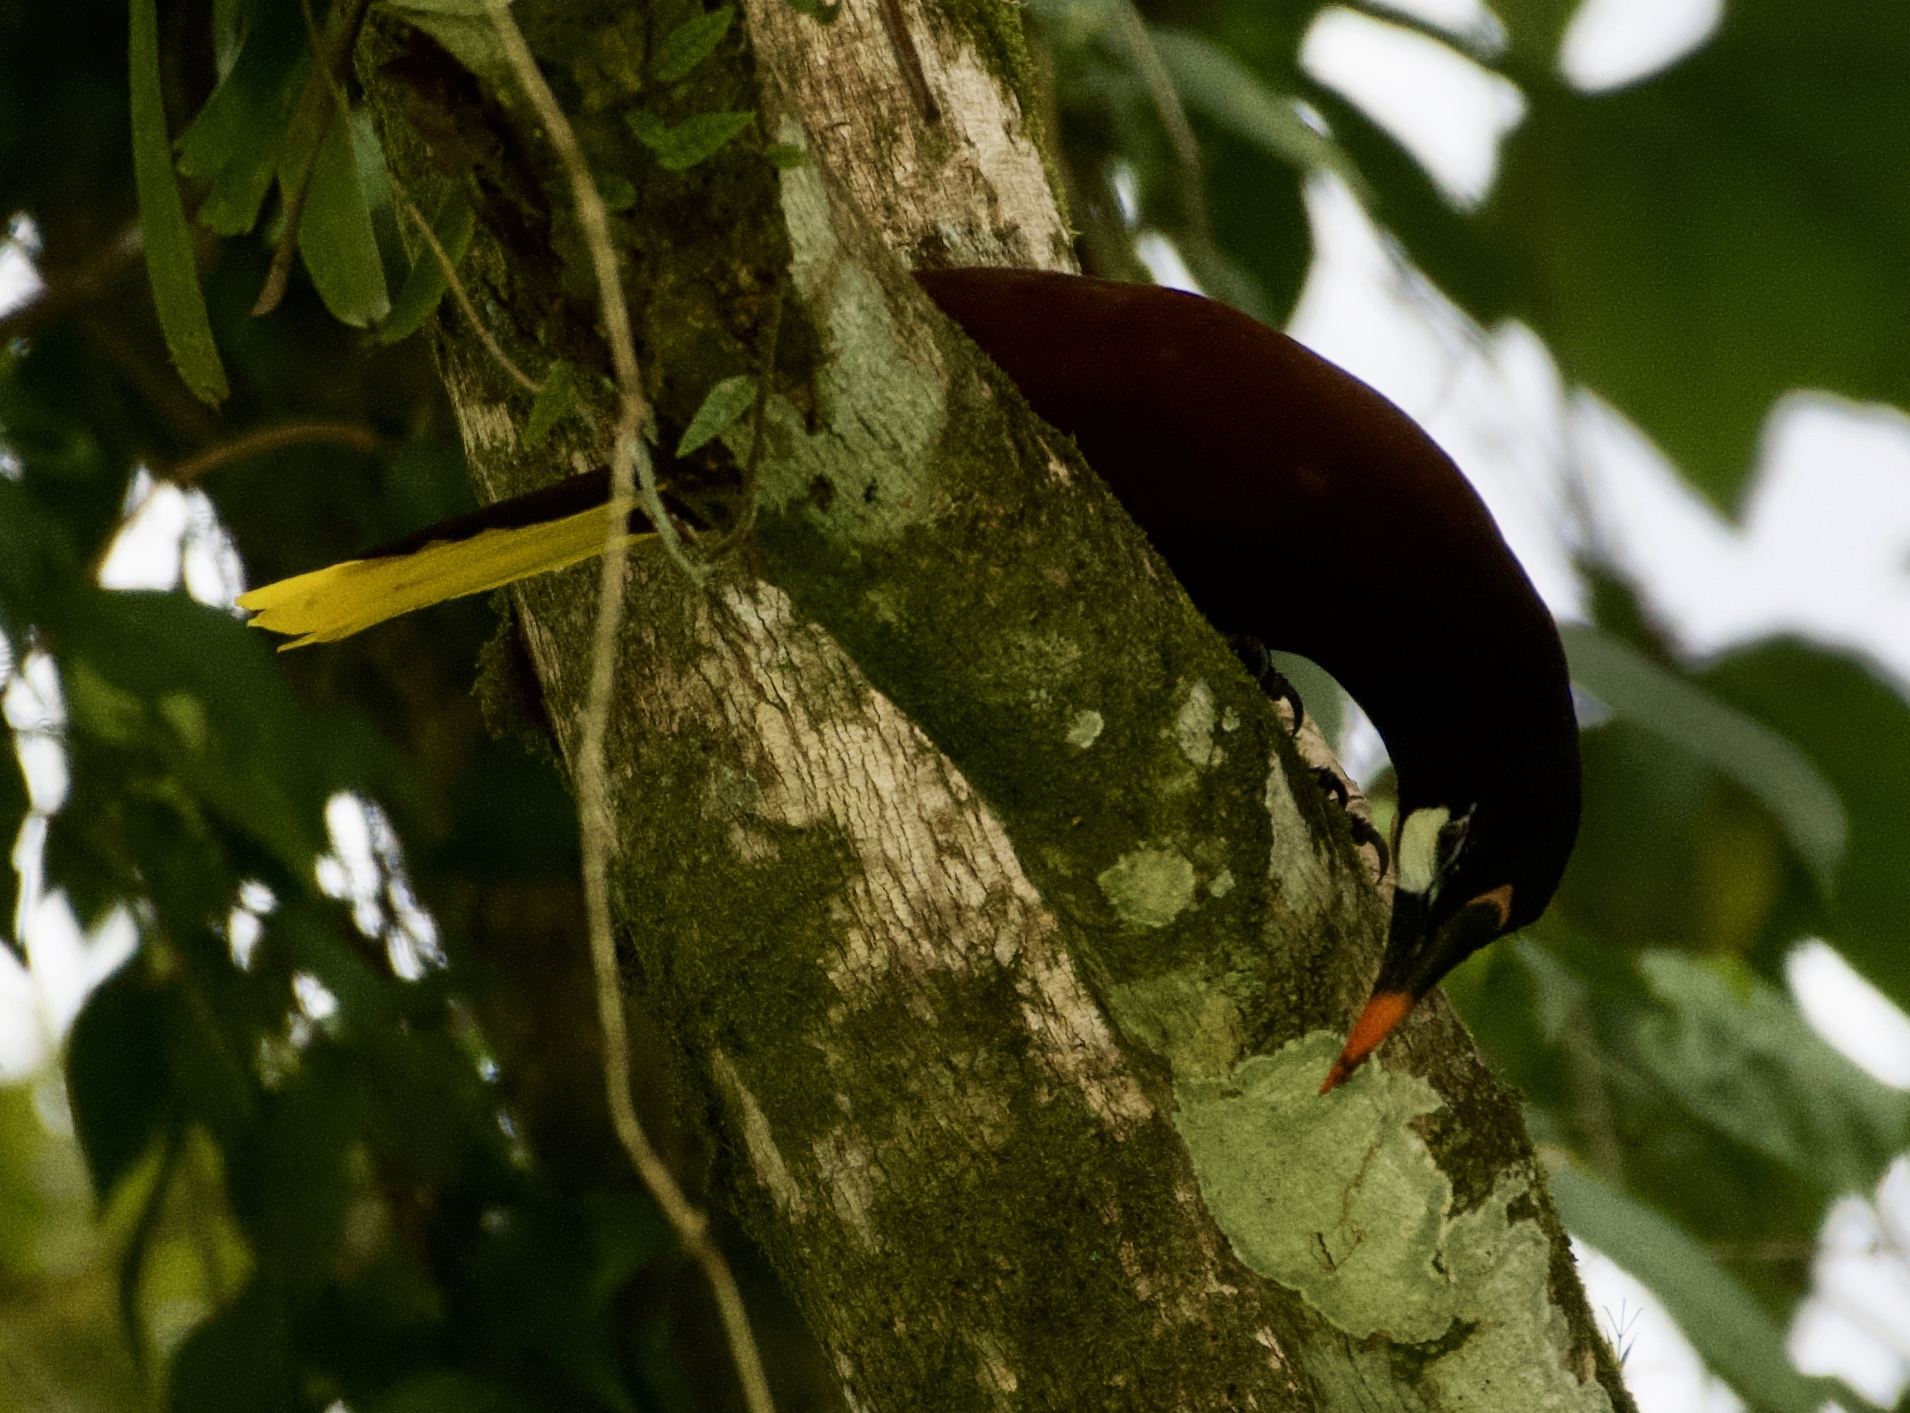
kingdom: Animalia
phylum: Chordata
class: Aves
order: Passeriformes
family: Icteridae
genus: Psarocolius
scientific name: Psarocolius montezuma
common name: Montezuma oropendola
